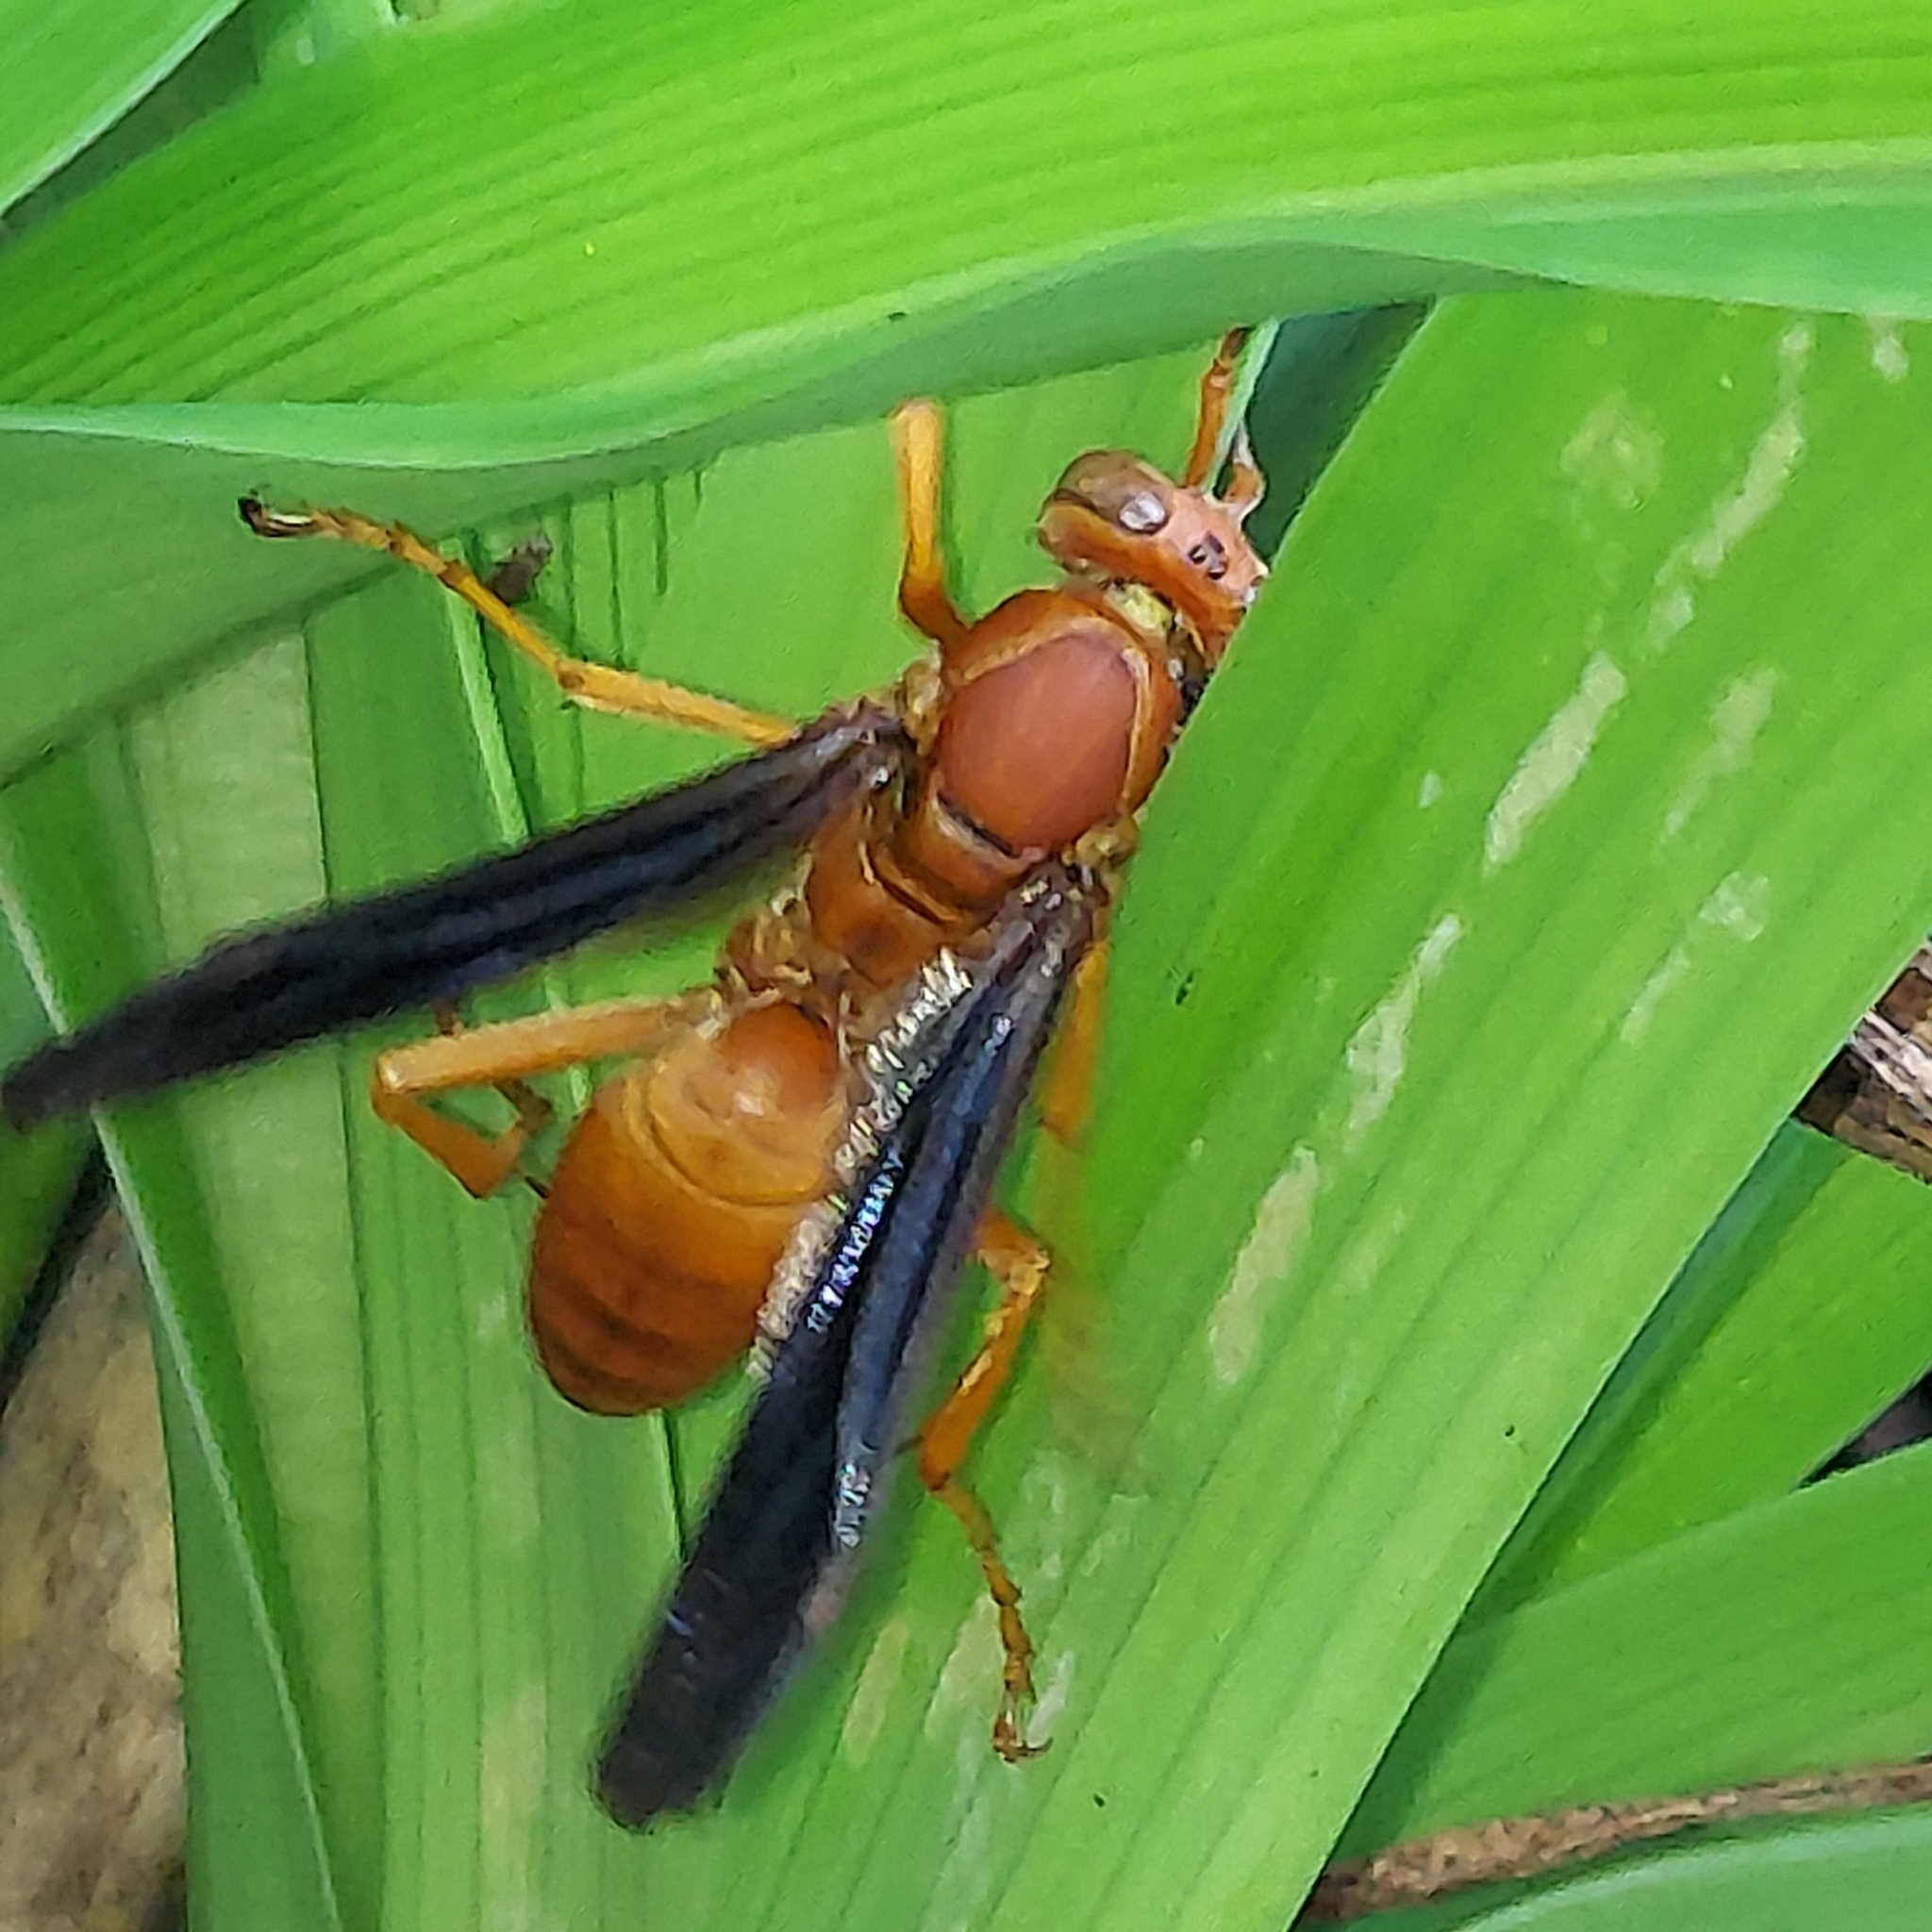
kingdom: Animalia
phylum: Arthropoda
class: Insecta
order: Hymenoptera
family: Vespidae
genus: Fuscopolistes
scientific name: Fuscopolistes
